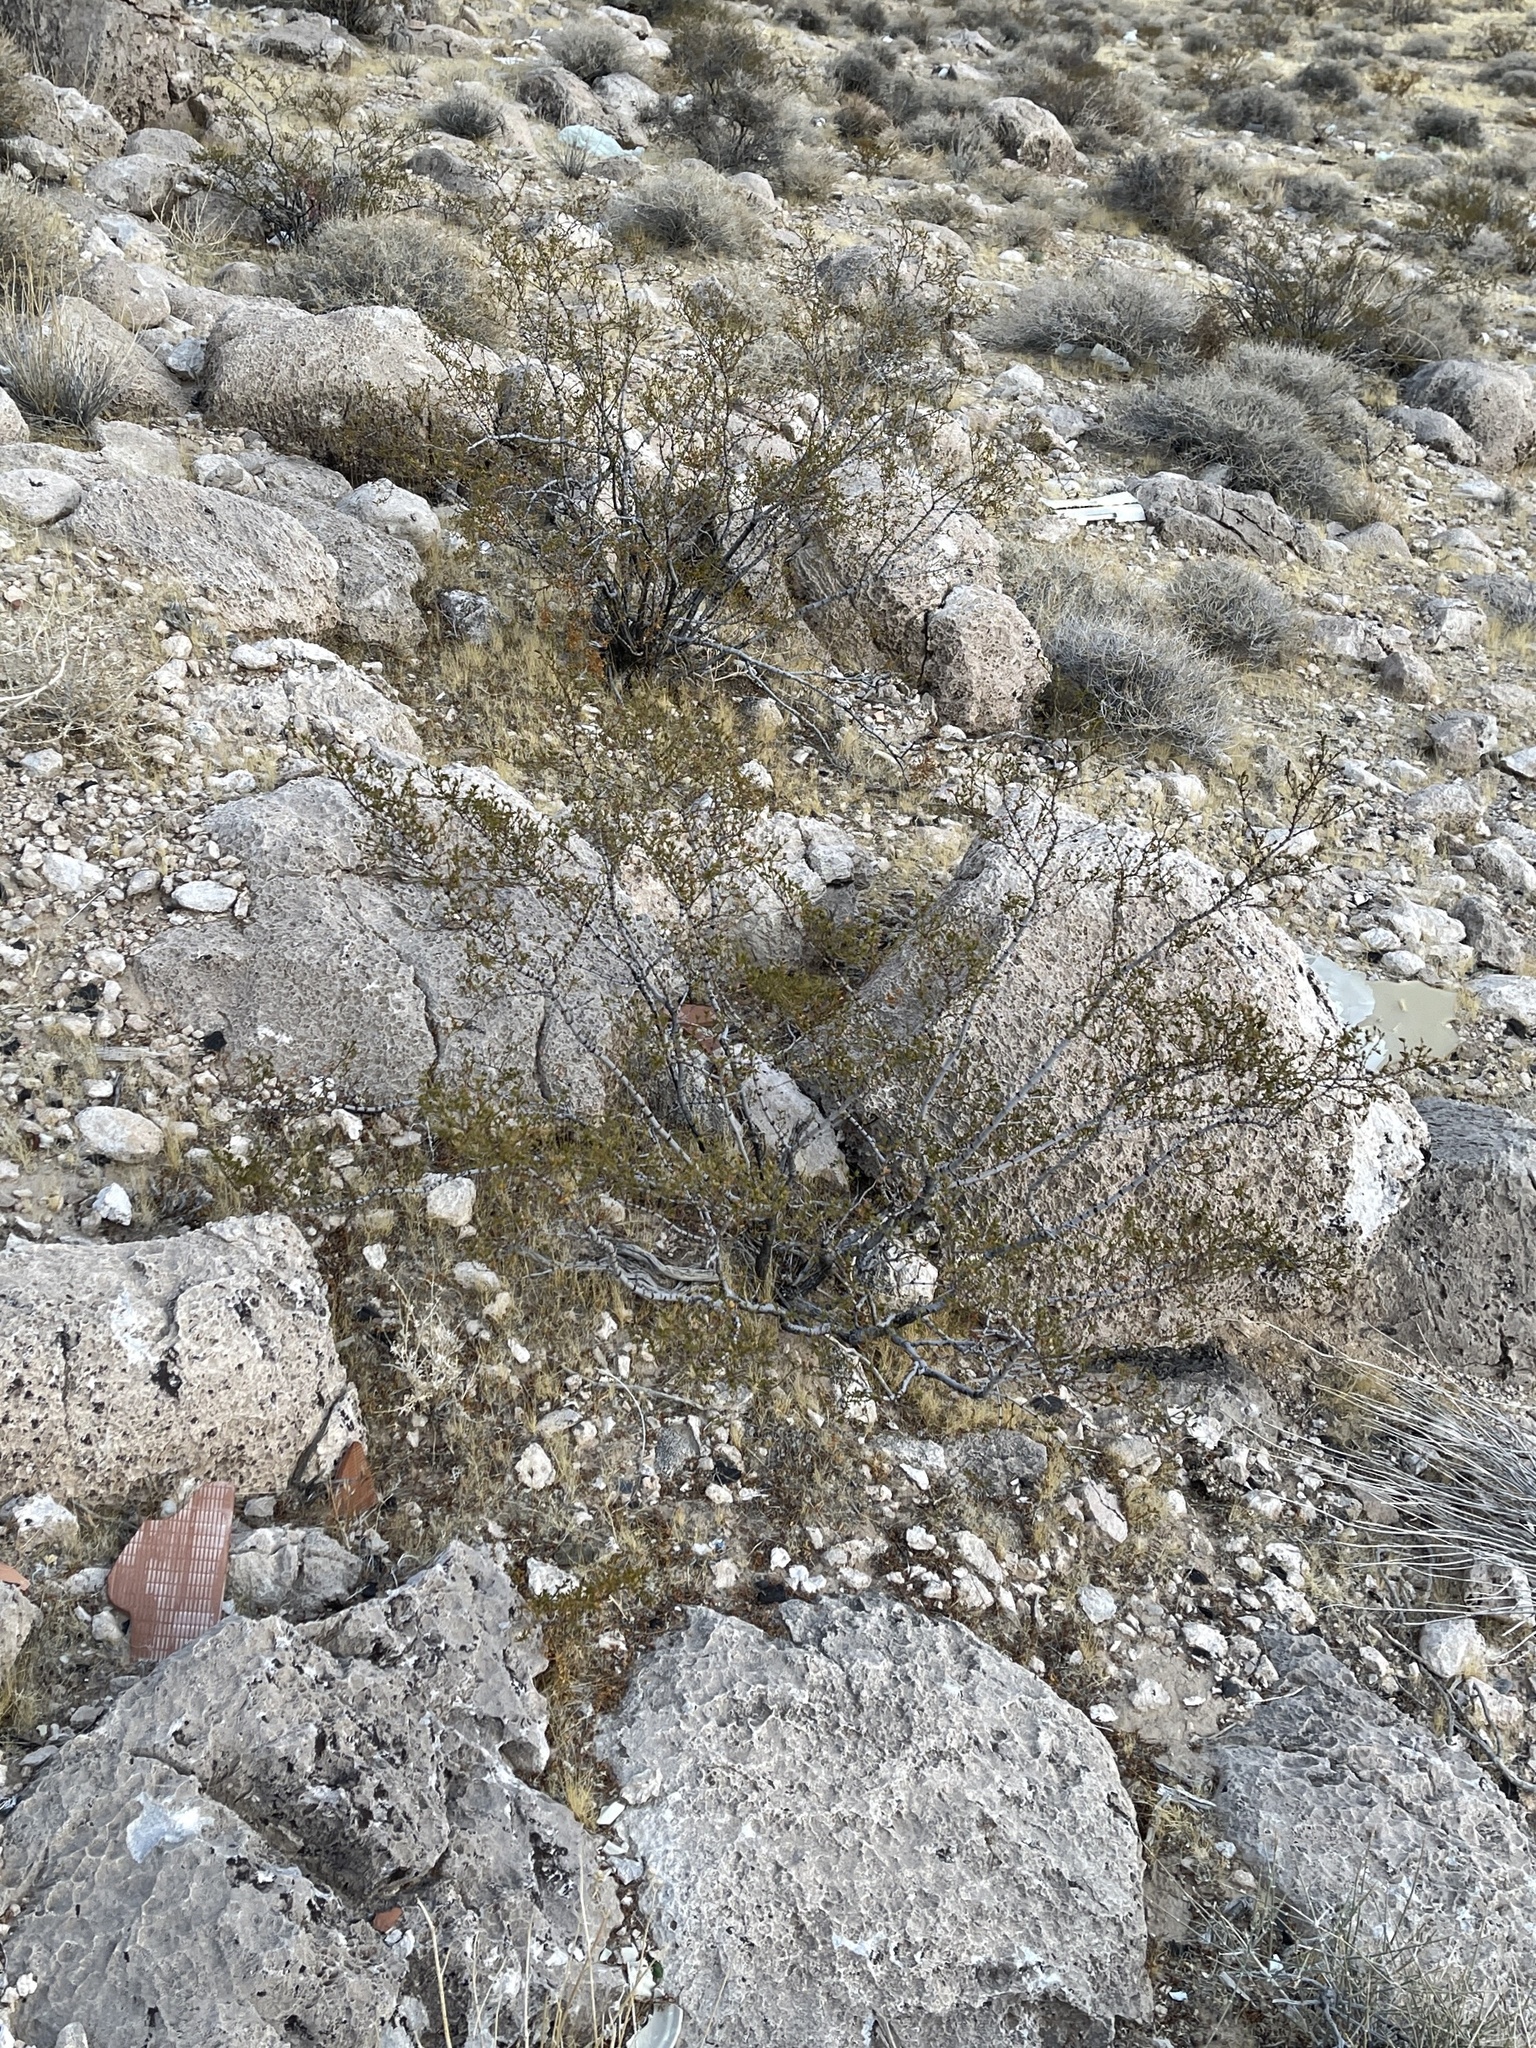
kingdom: Plantae
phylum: Tracheophyta
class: Magnoliopsida
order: Zygophyllales
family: Zygophyllaceae
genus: Larrea
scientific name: Larrea tridentata
